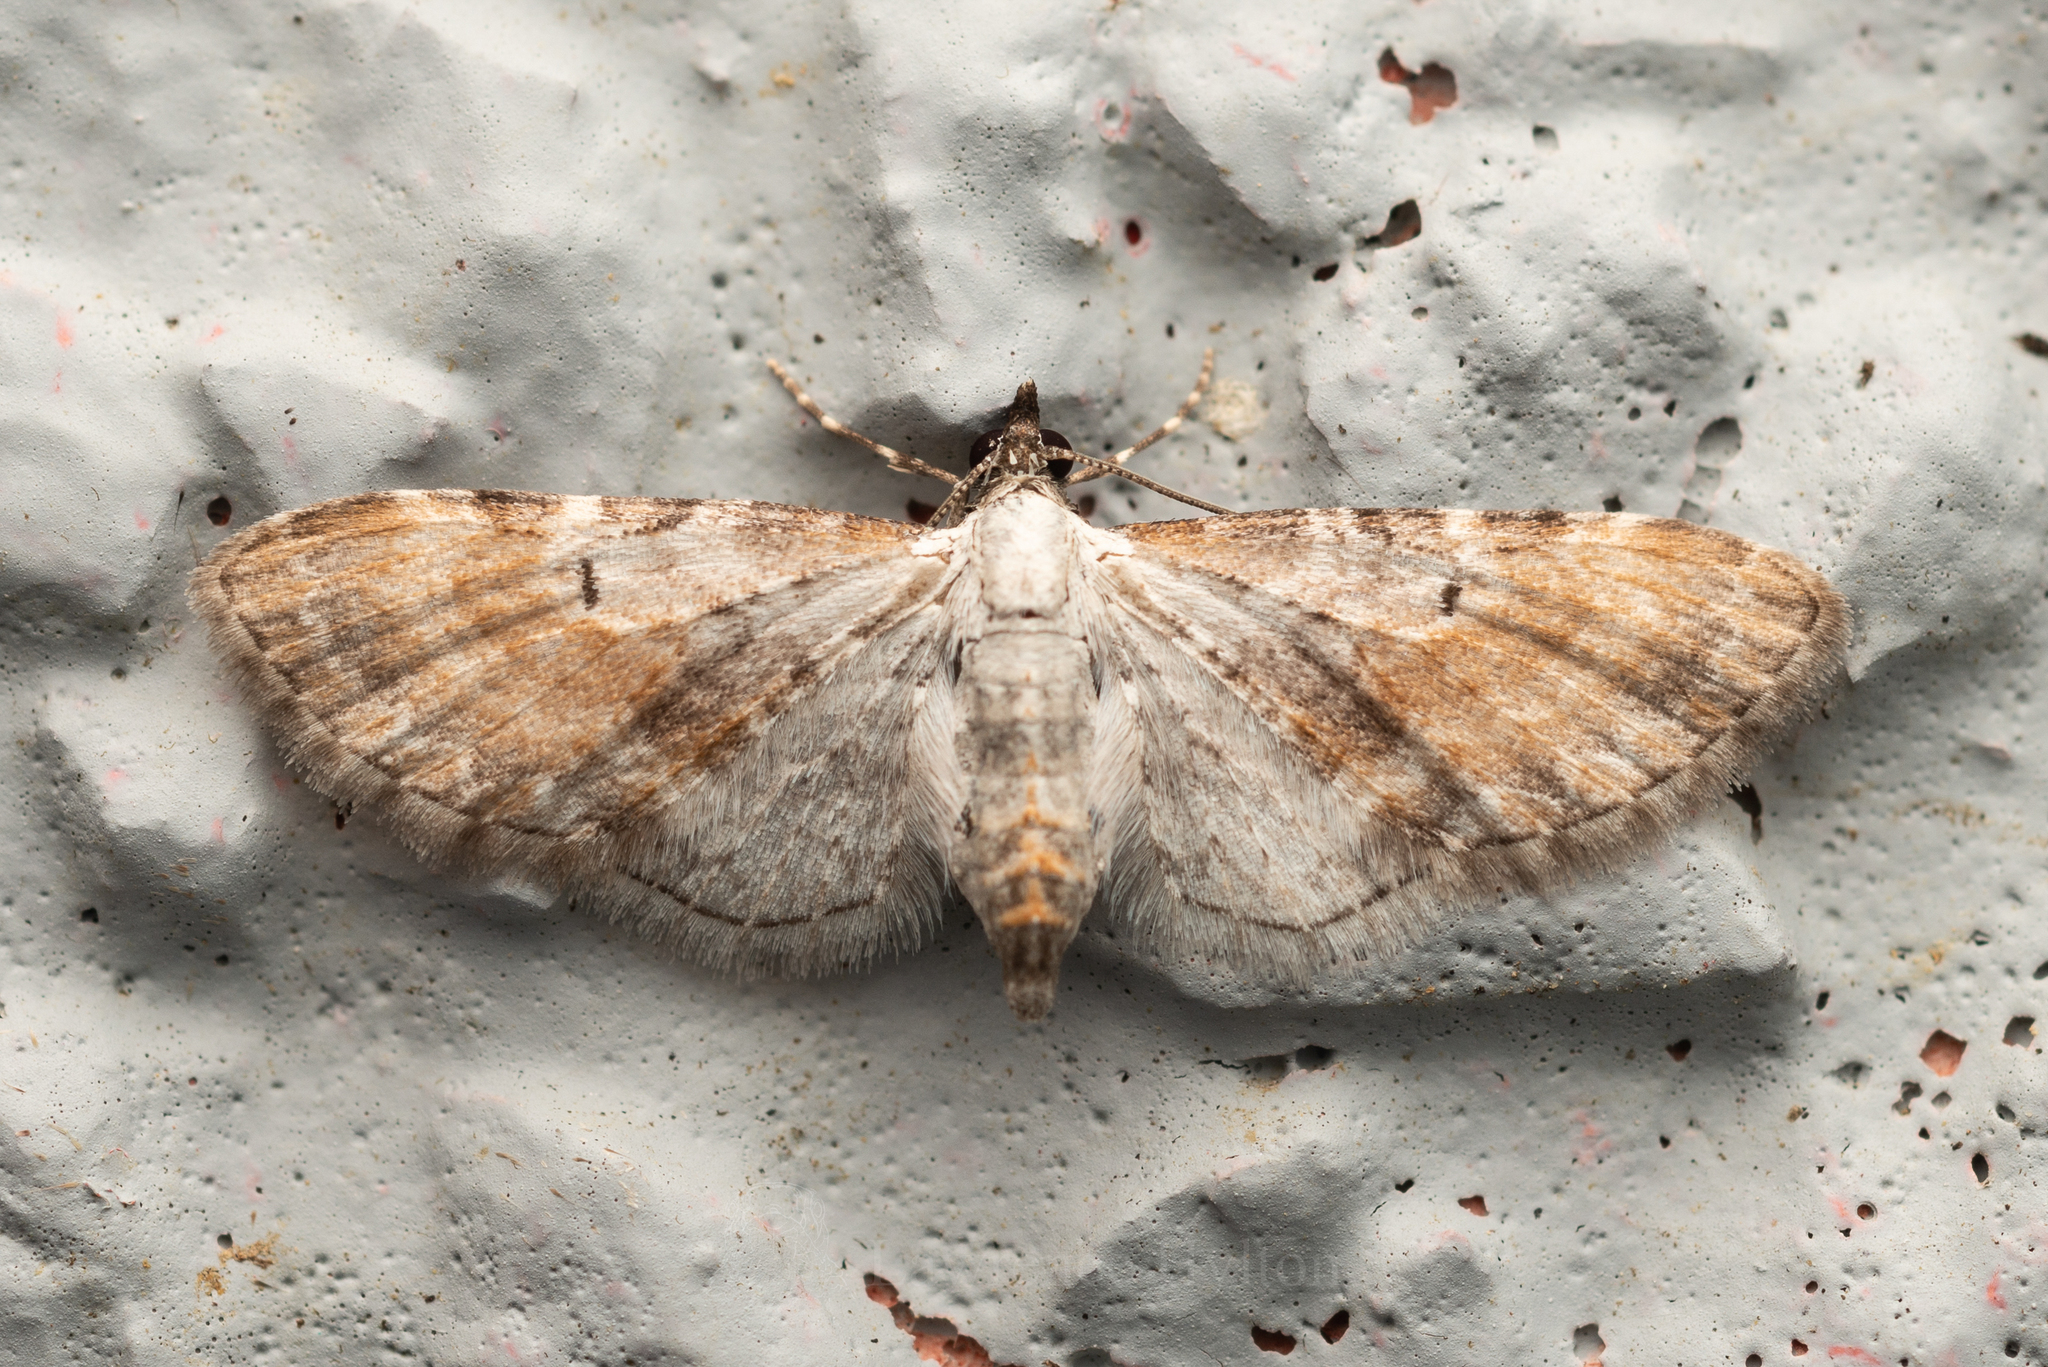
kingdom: Animalia
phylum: Arthropoda
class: Insecta
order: Lepidoptera
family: Geometridae
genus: Eupithecia
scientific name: Eupithecia mundiscripta
